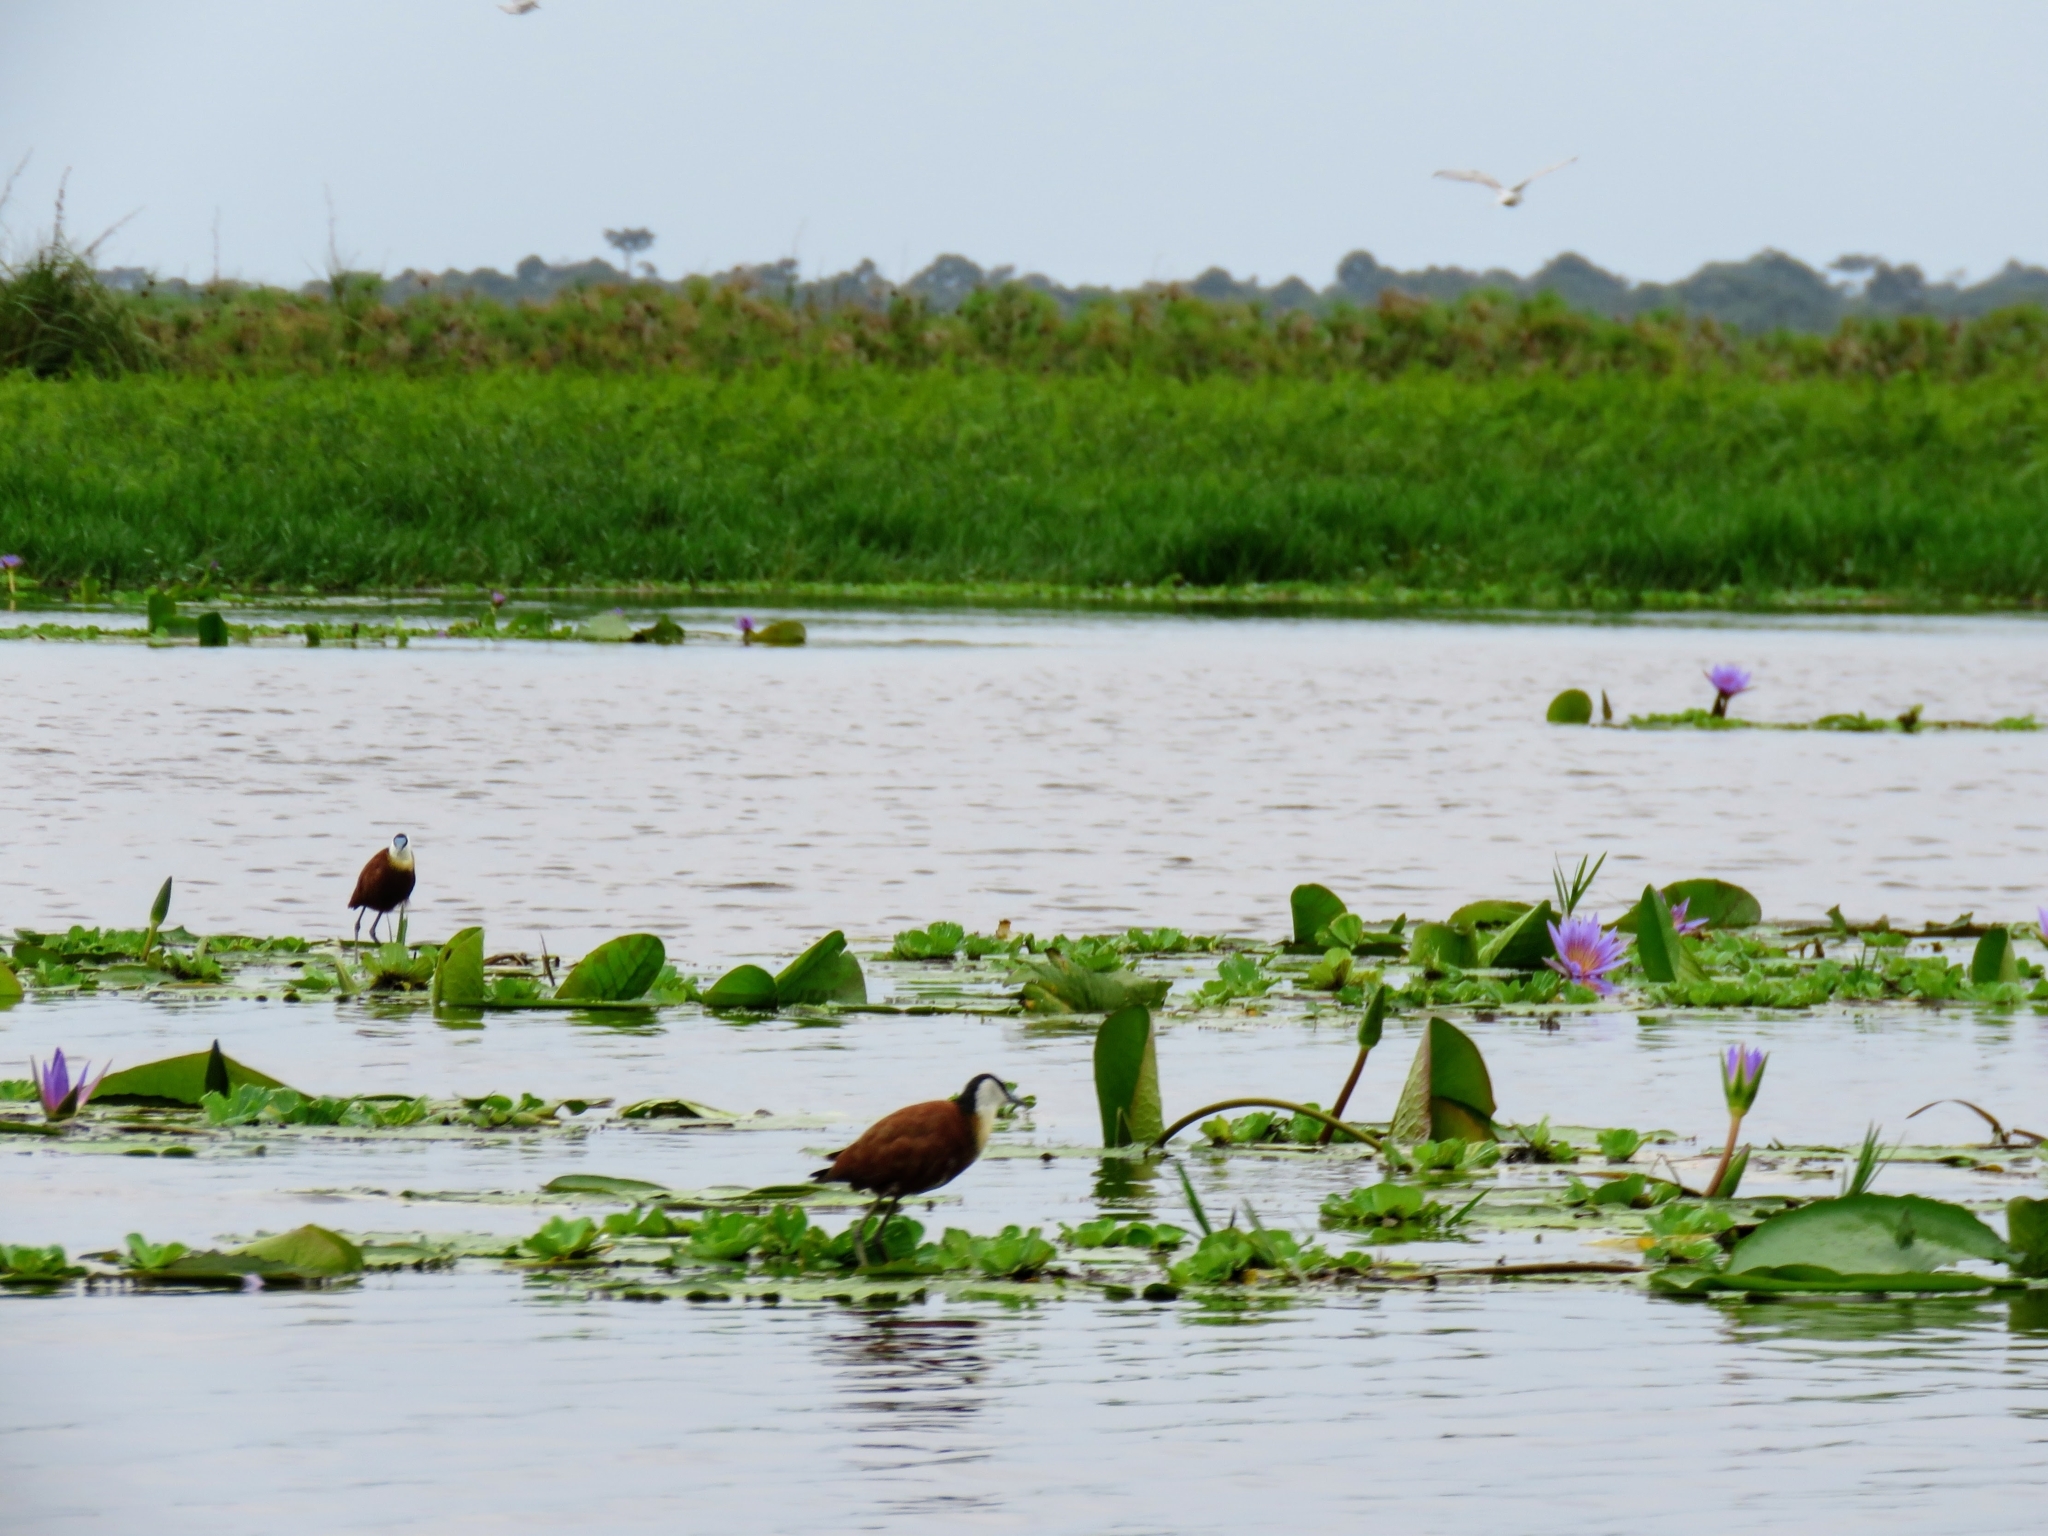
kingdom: Animalia
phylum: Chordata
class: Aves
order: Charadriiformes
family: Jacanidae
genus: Actophilornis
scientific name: Actophilornis africanus
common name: African jacana
